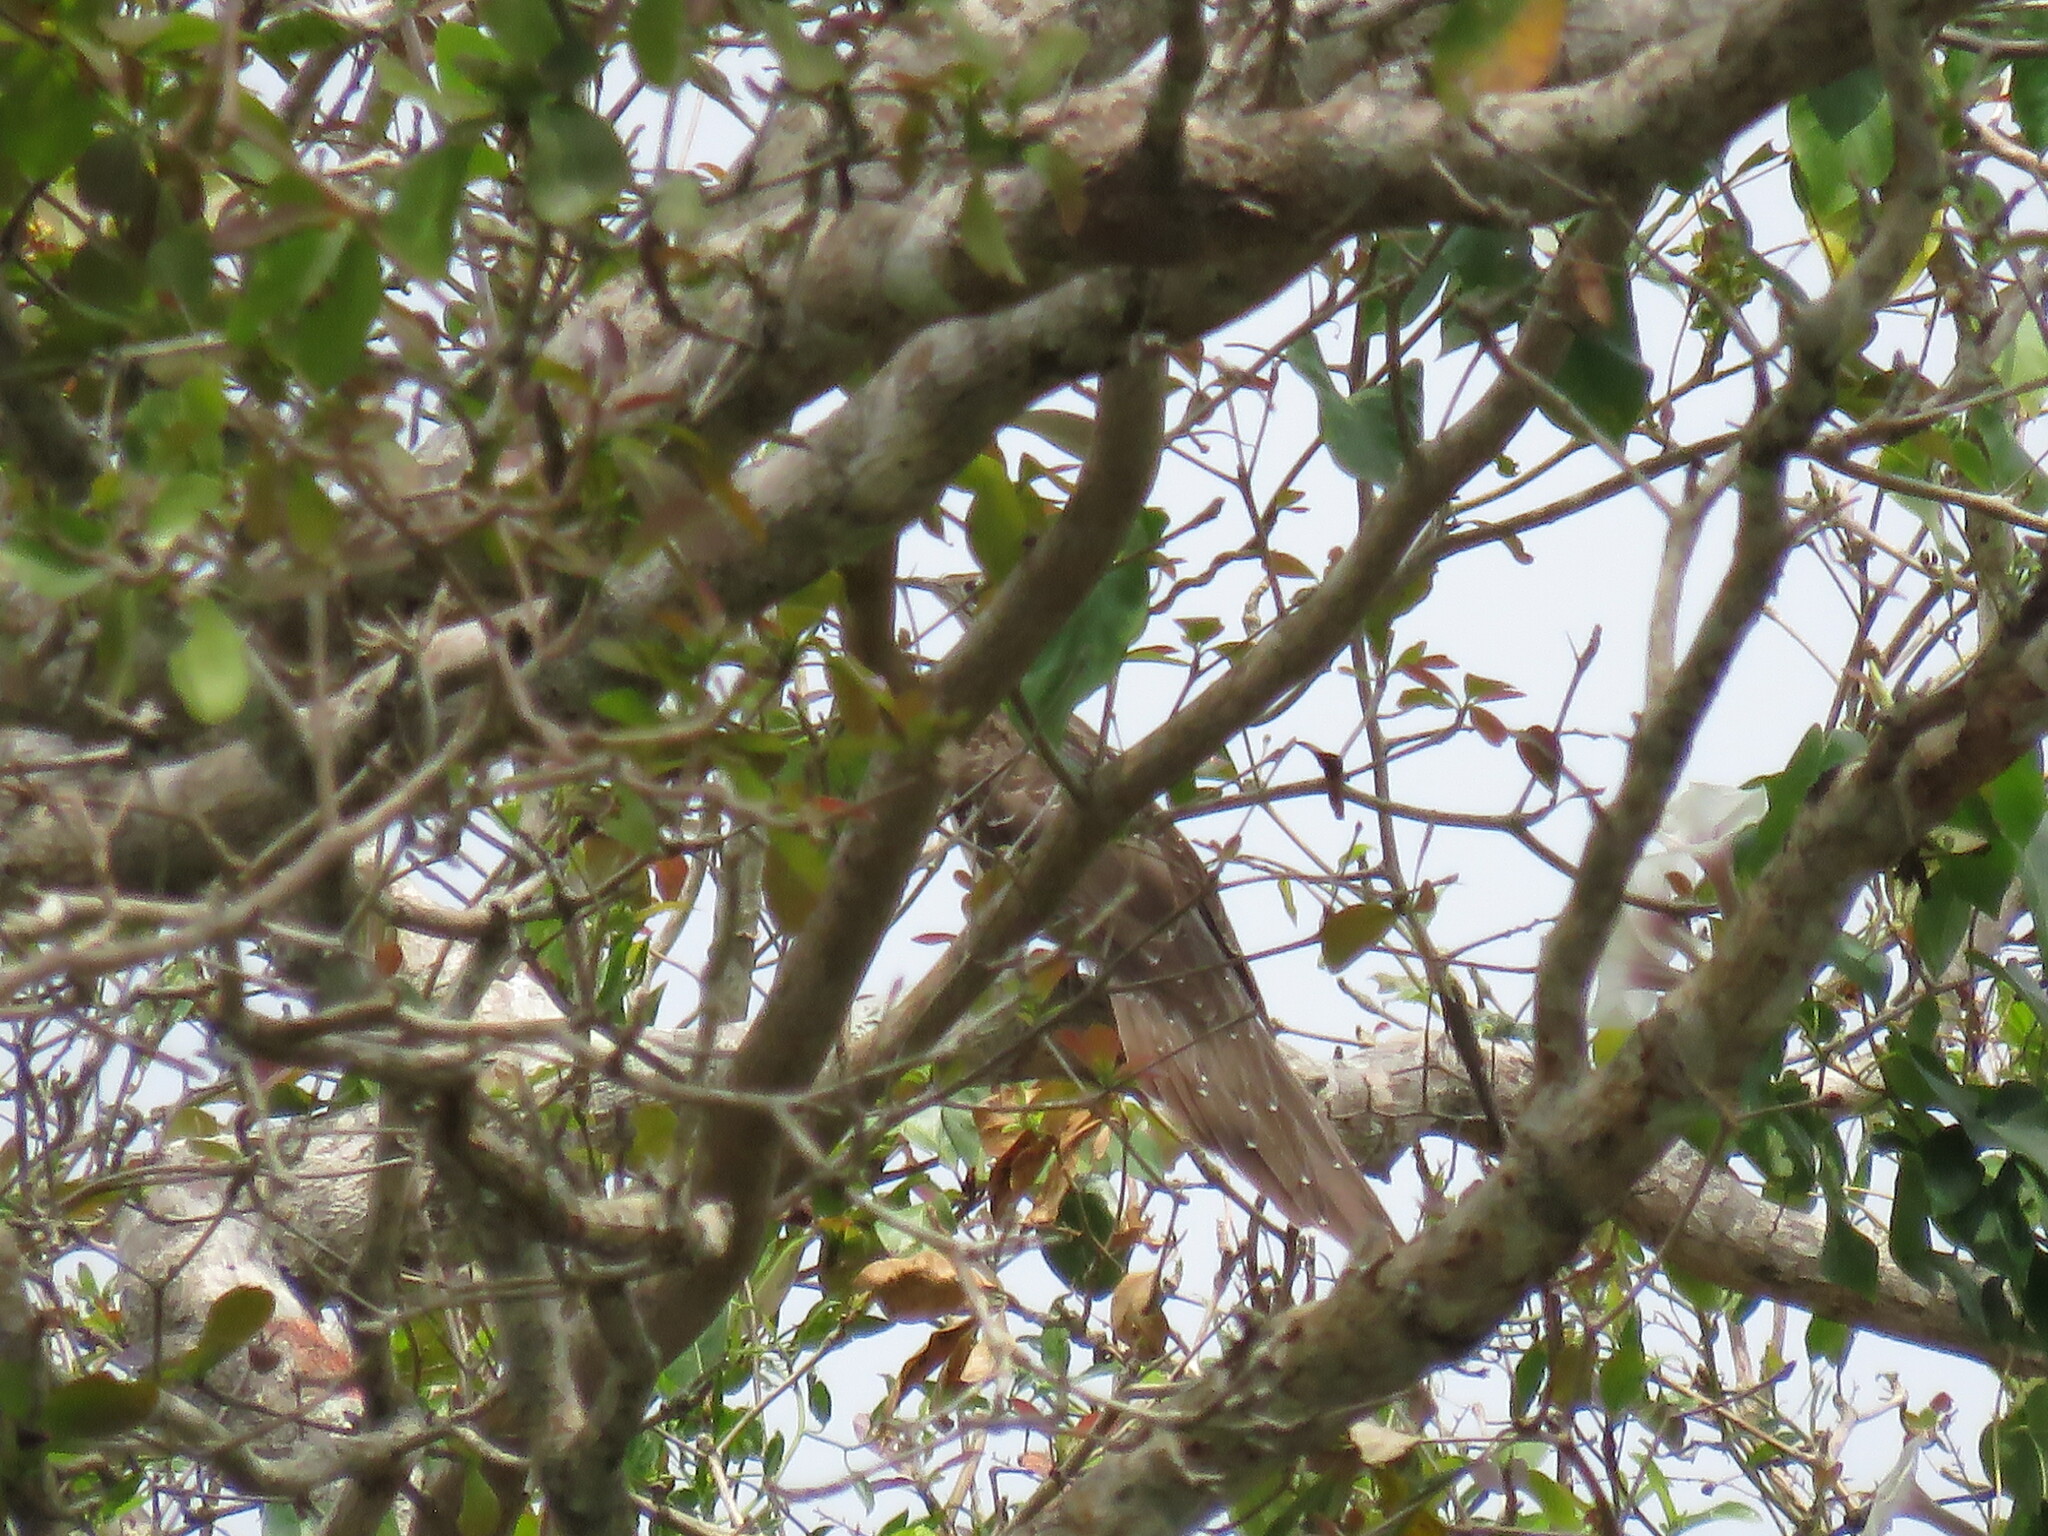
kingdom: Animalia
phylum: Chordata
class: Aves
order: Cuculiformes
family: Cuculidae
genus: Dromococcyx
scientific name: Dromococcyx phasianellus
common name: Pheasant cuckoo
